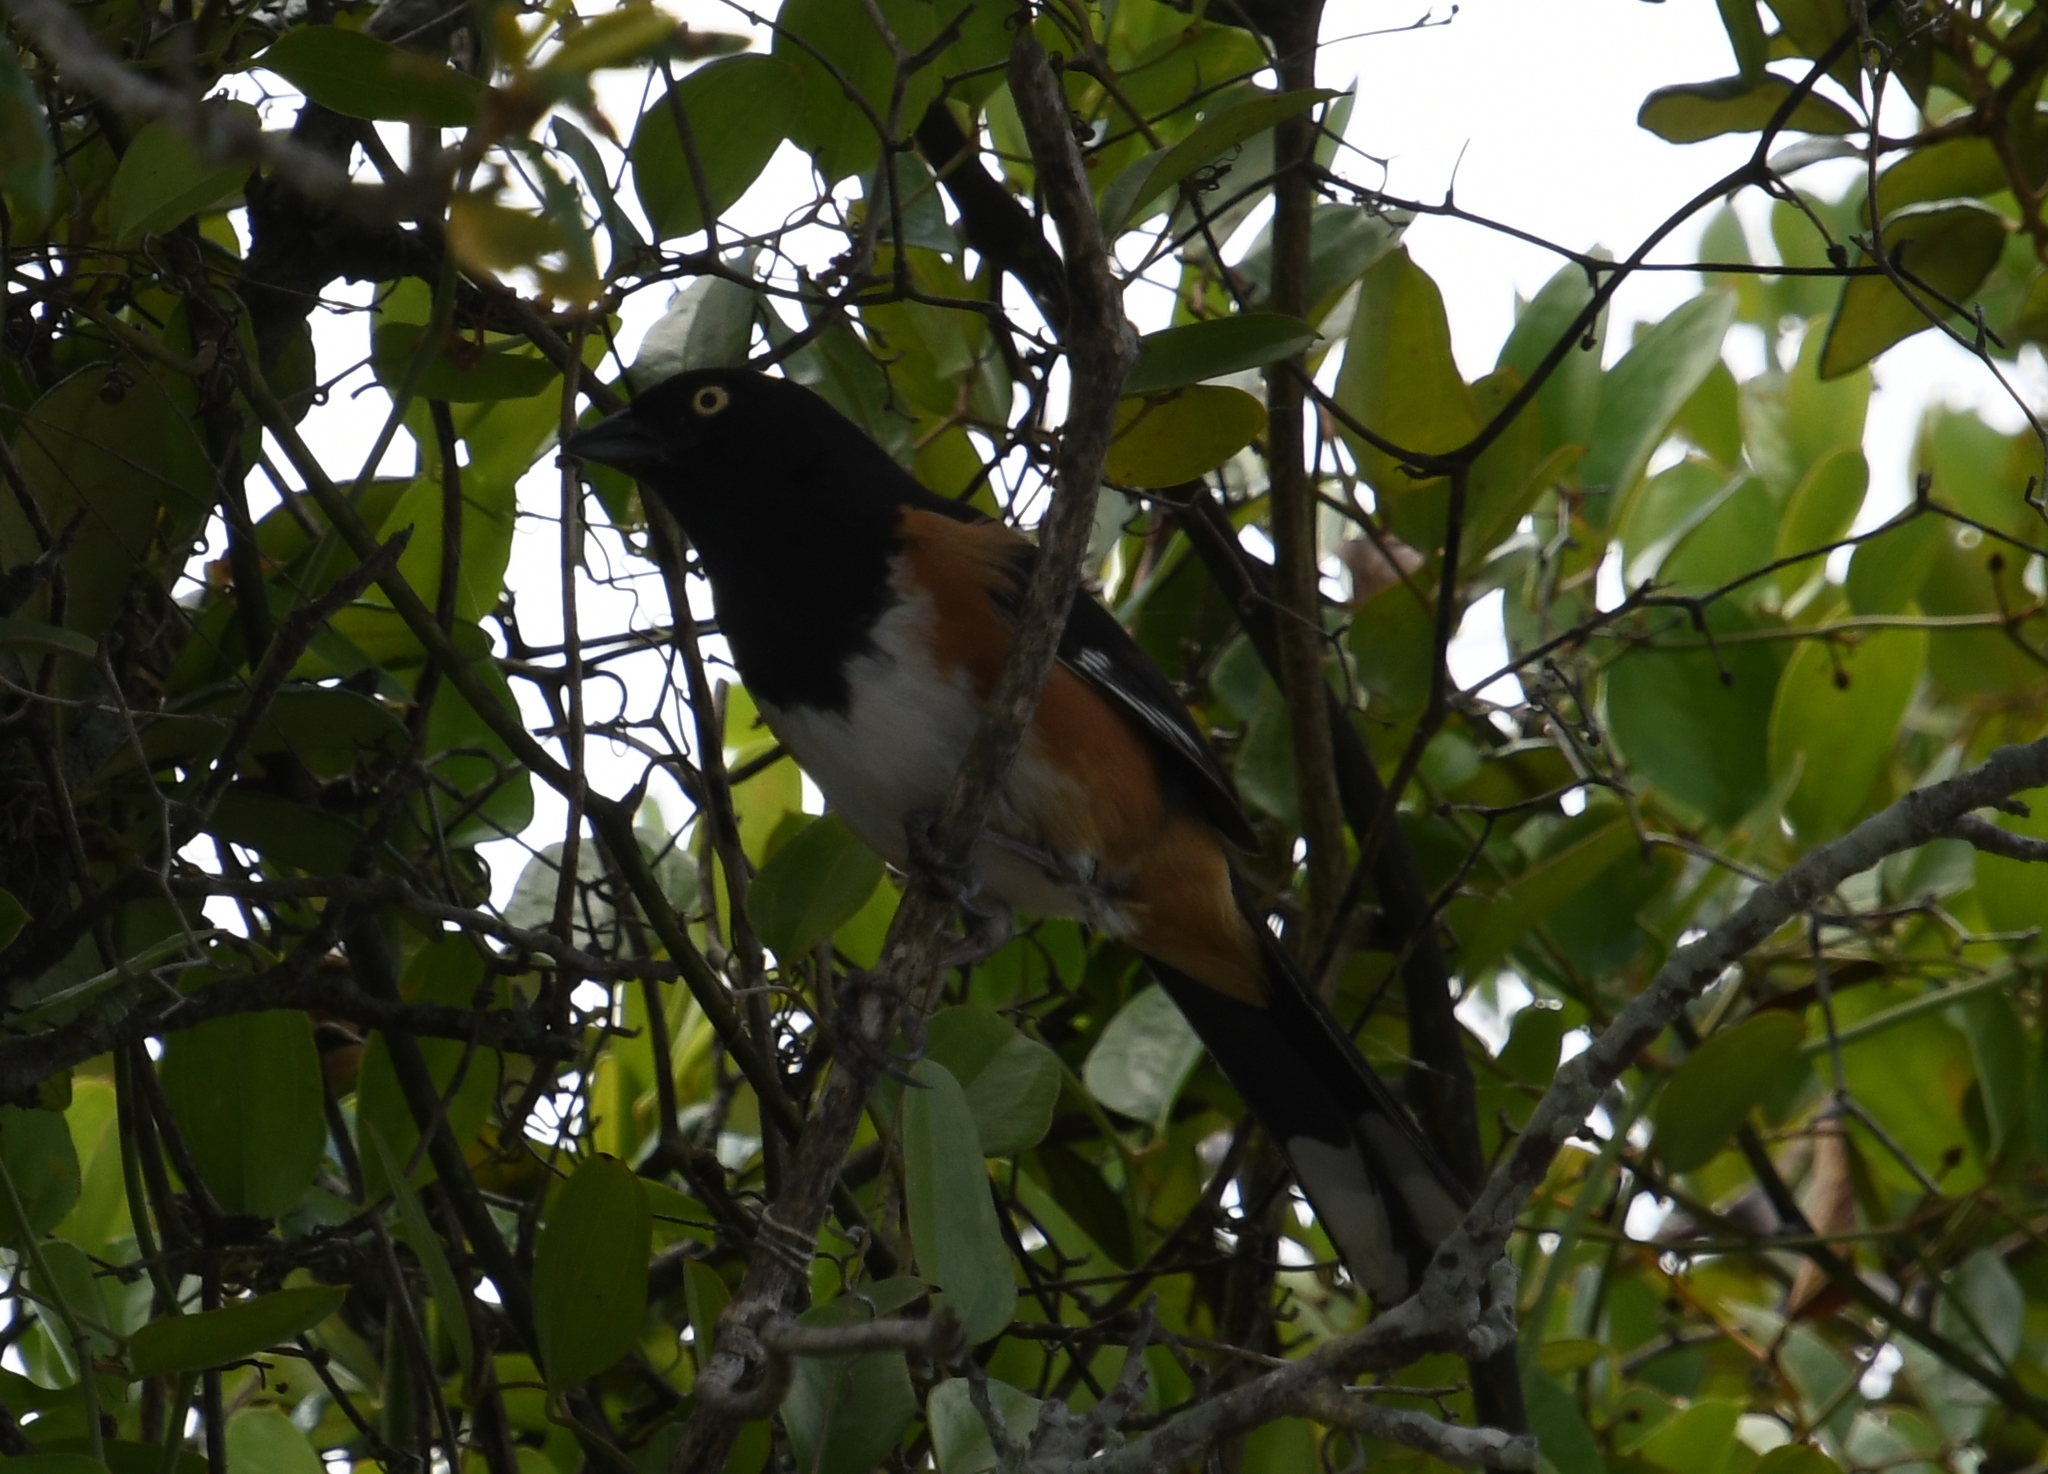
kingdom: Animalia
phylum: Chordata
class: Aves
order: Passeriformes
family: Passerellidae
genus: Pipilo
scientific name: Pipilo erythrophthalmus
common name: Eastern towhee
